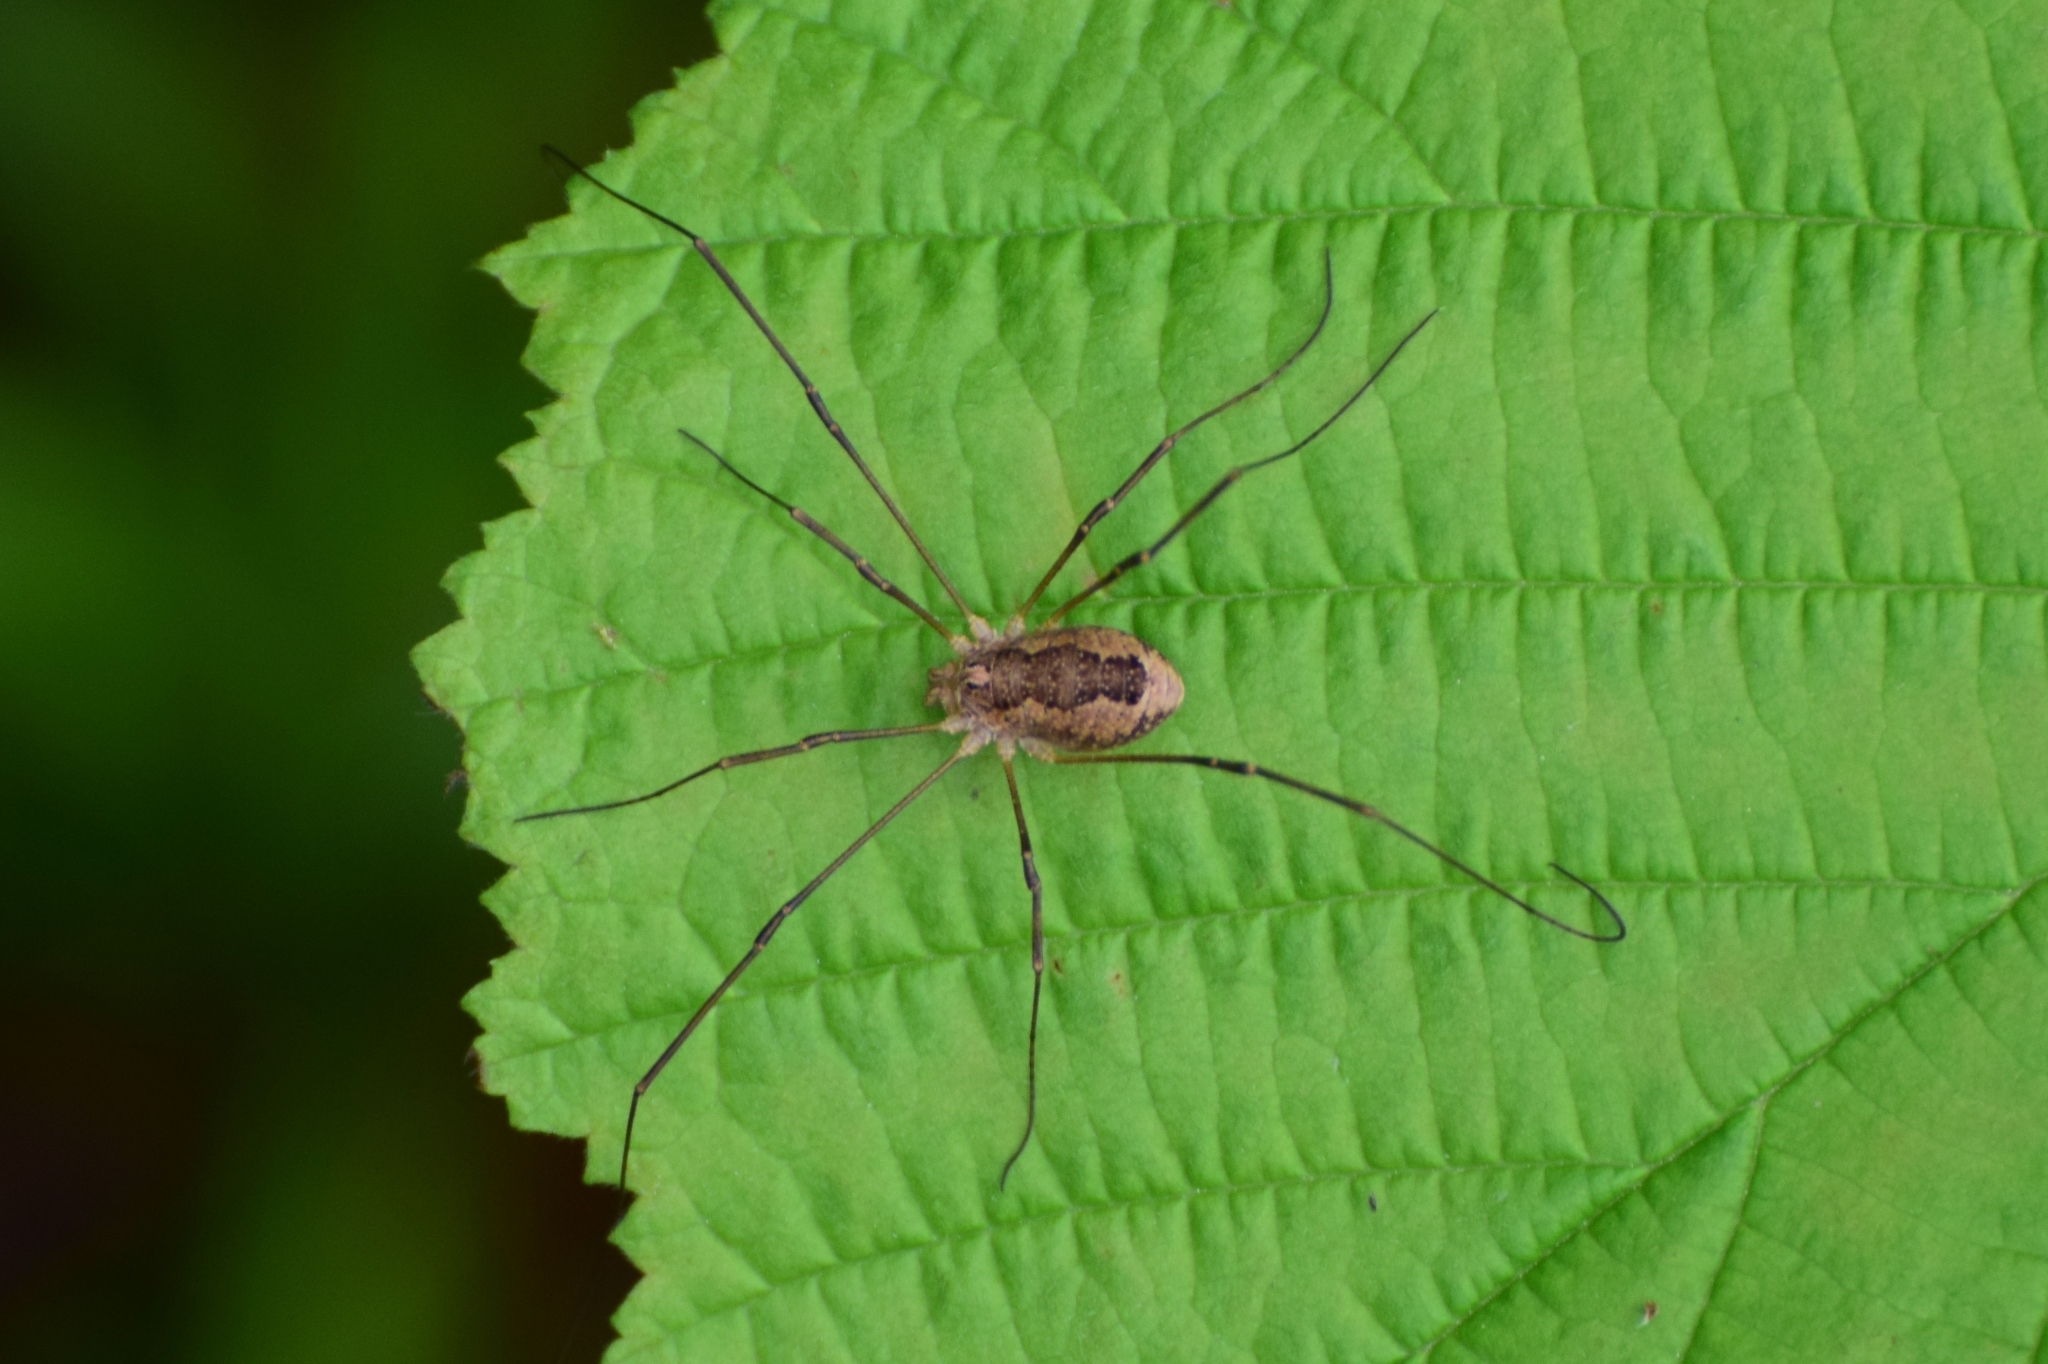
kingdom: Animalia
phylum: Arthropoda
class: Arachnida
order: Opiliones
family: Phalangiidae
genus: Rilaena
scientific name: Rilaena triangularis
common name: Spring harvestman
